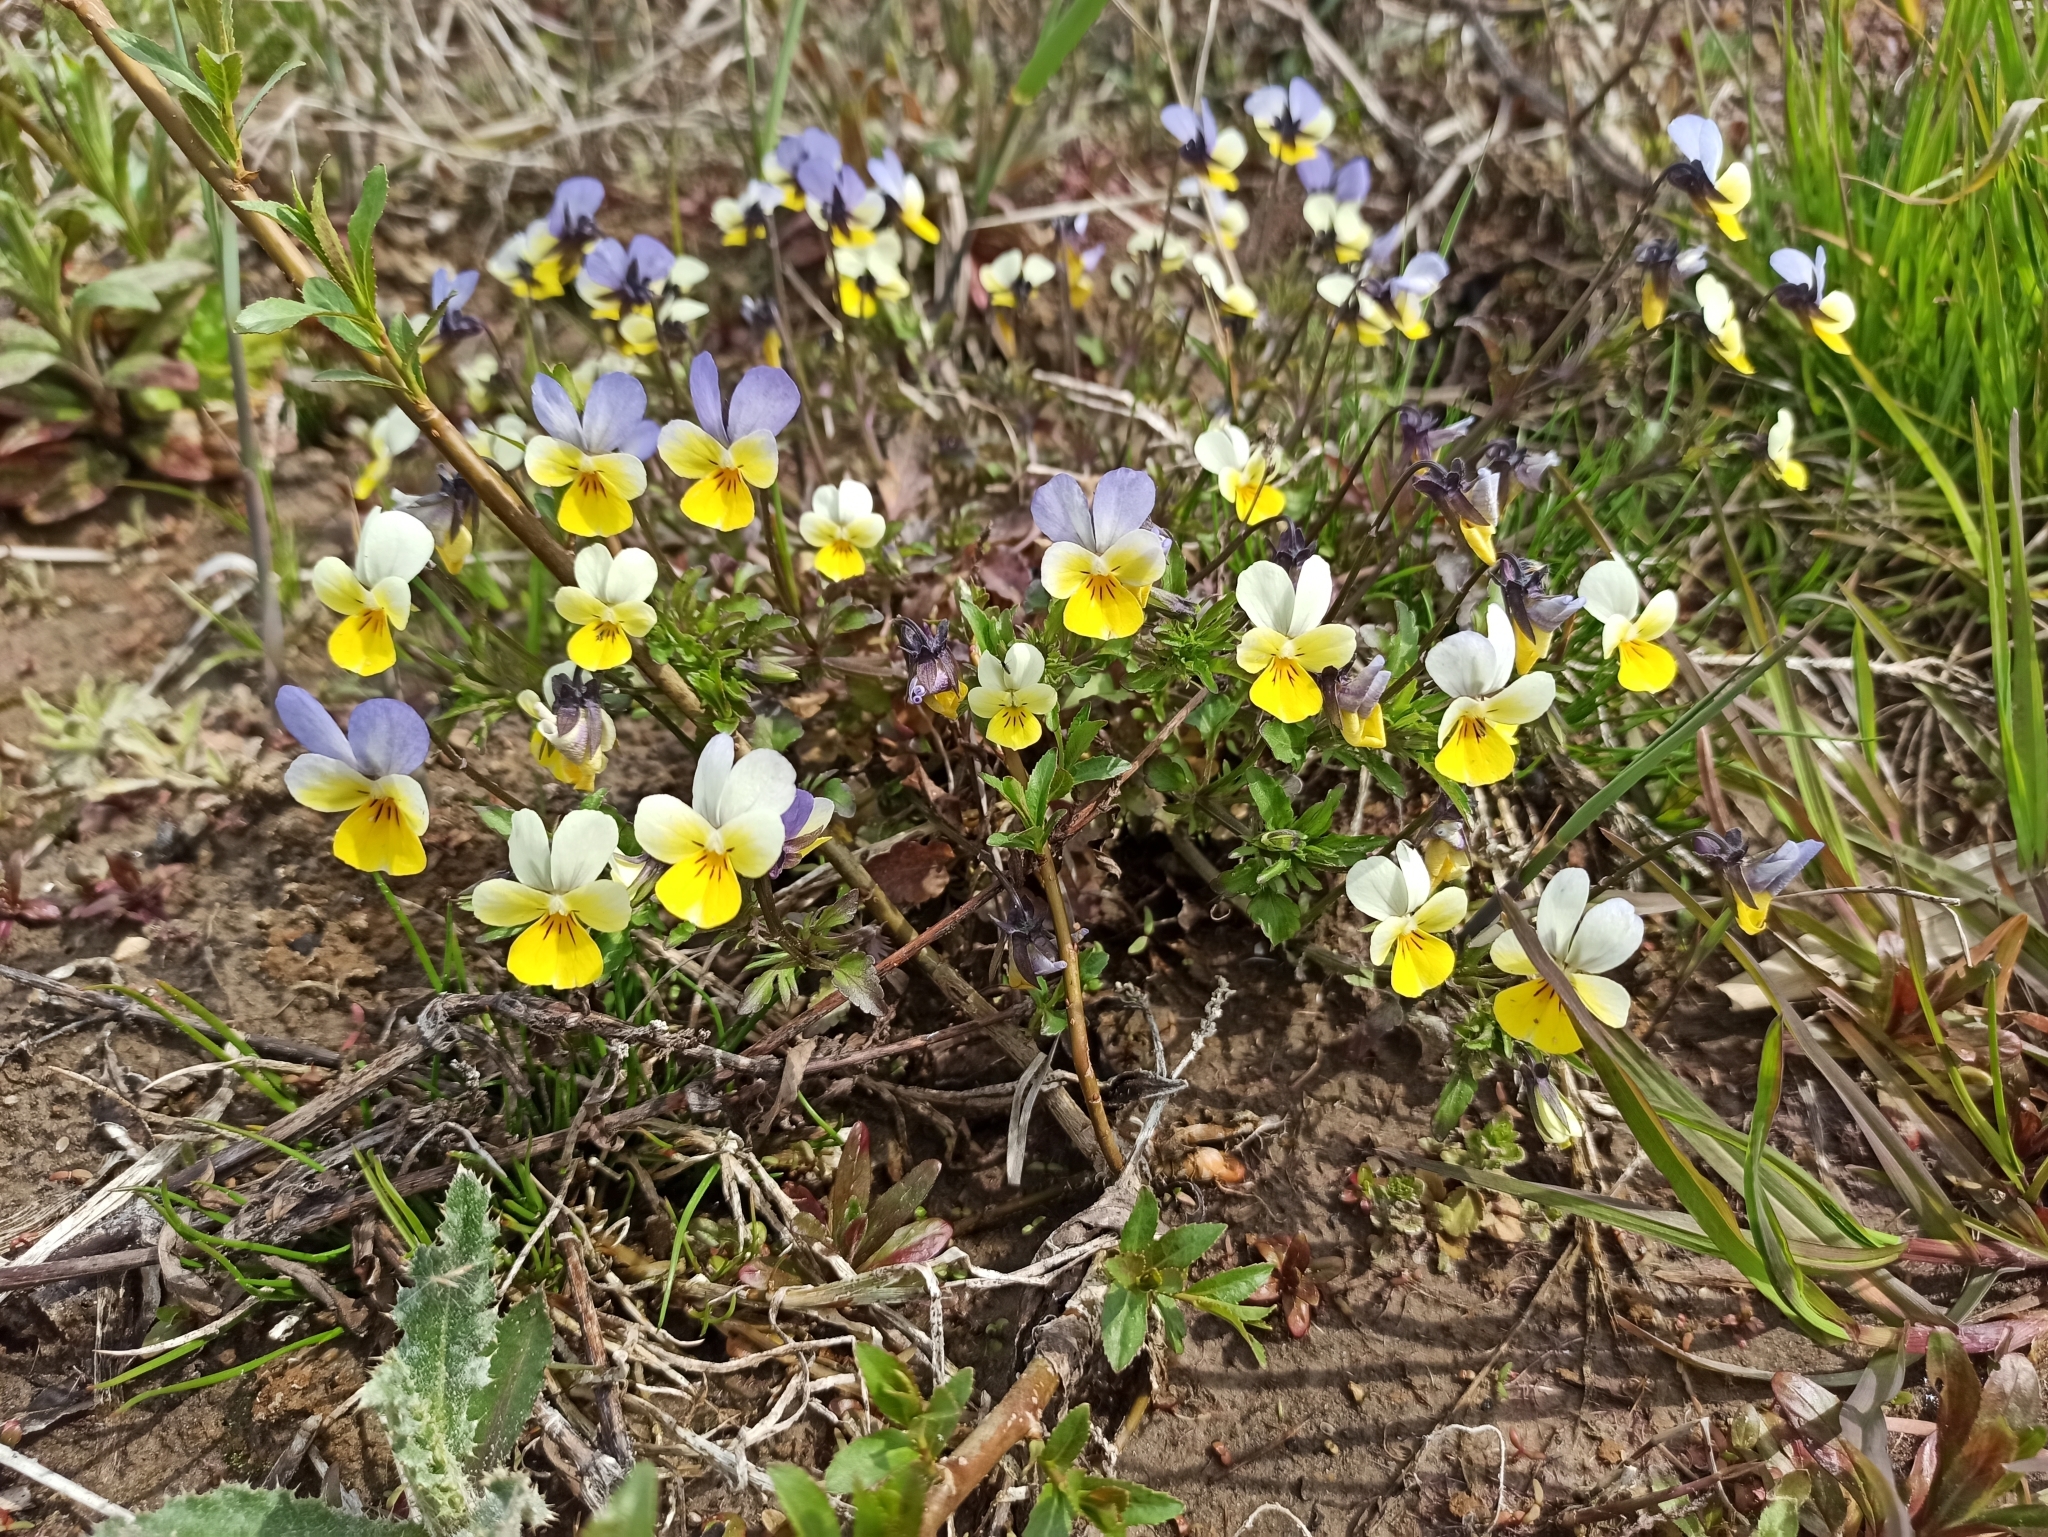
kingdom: Plantae
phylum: Tracheophyta
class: Magnoliopsida
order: Malpighiales
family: Violaceae
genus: Viola
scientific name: Viola tricolor
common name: Pansy
